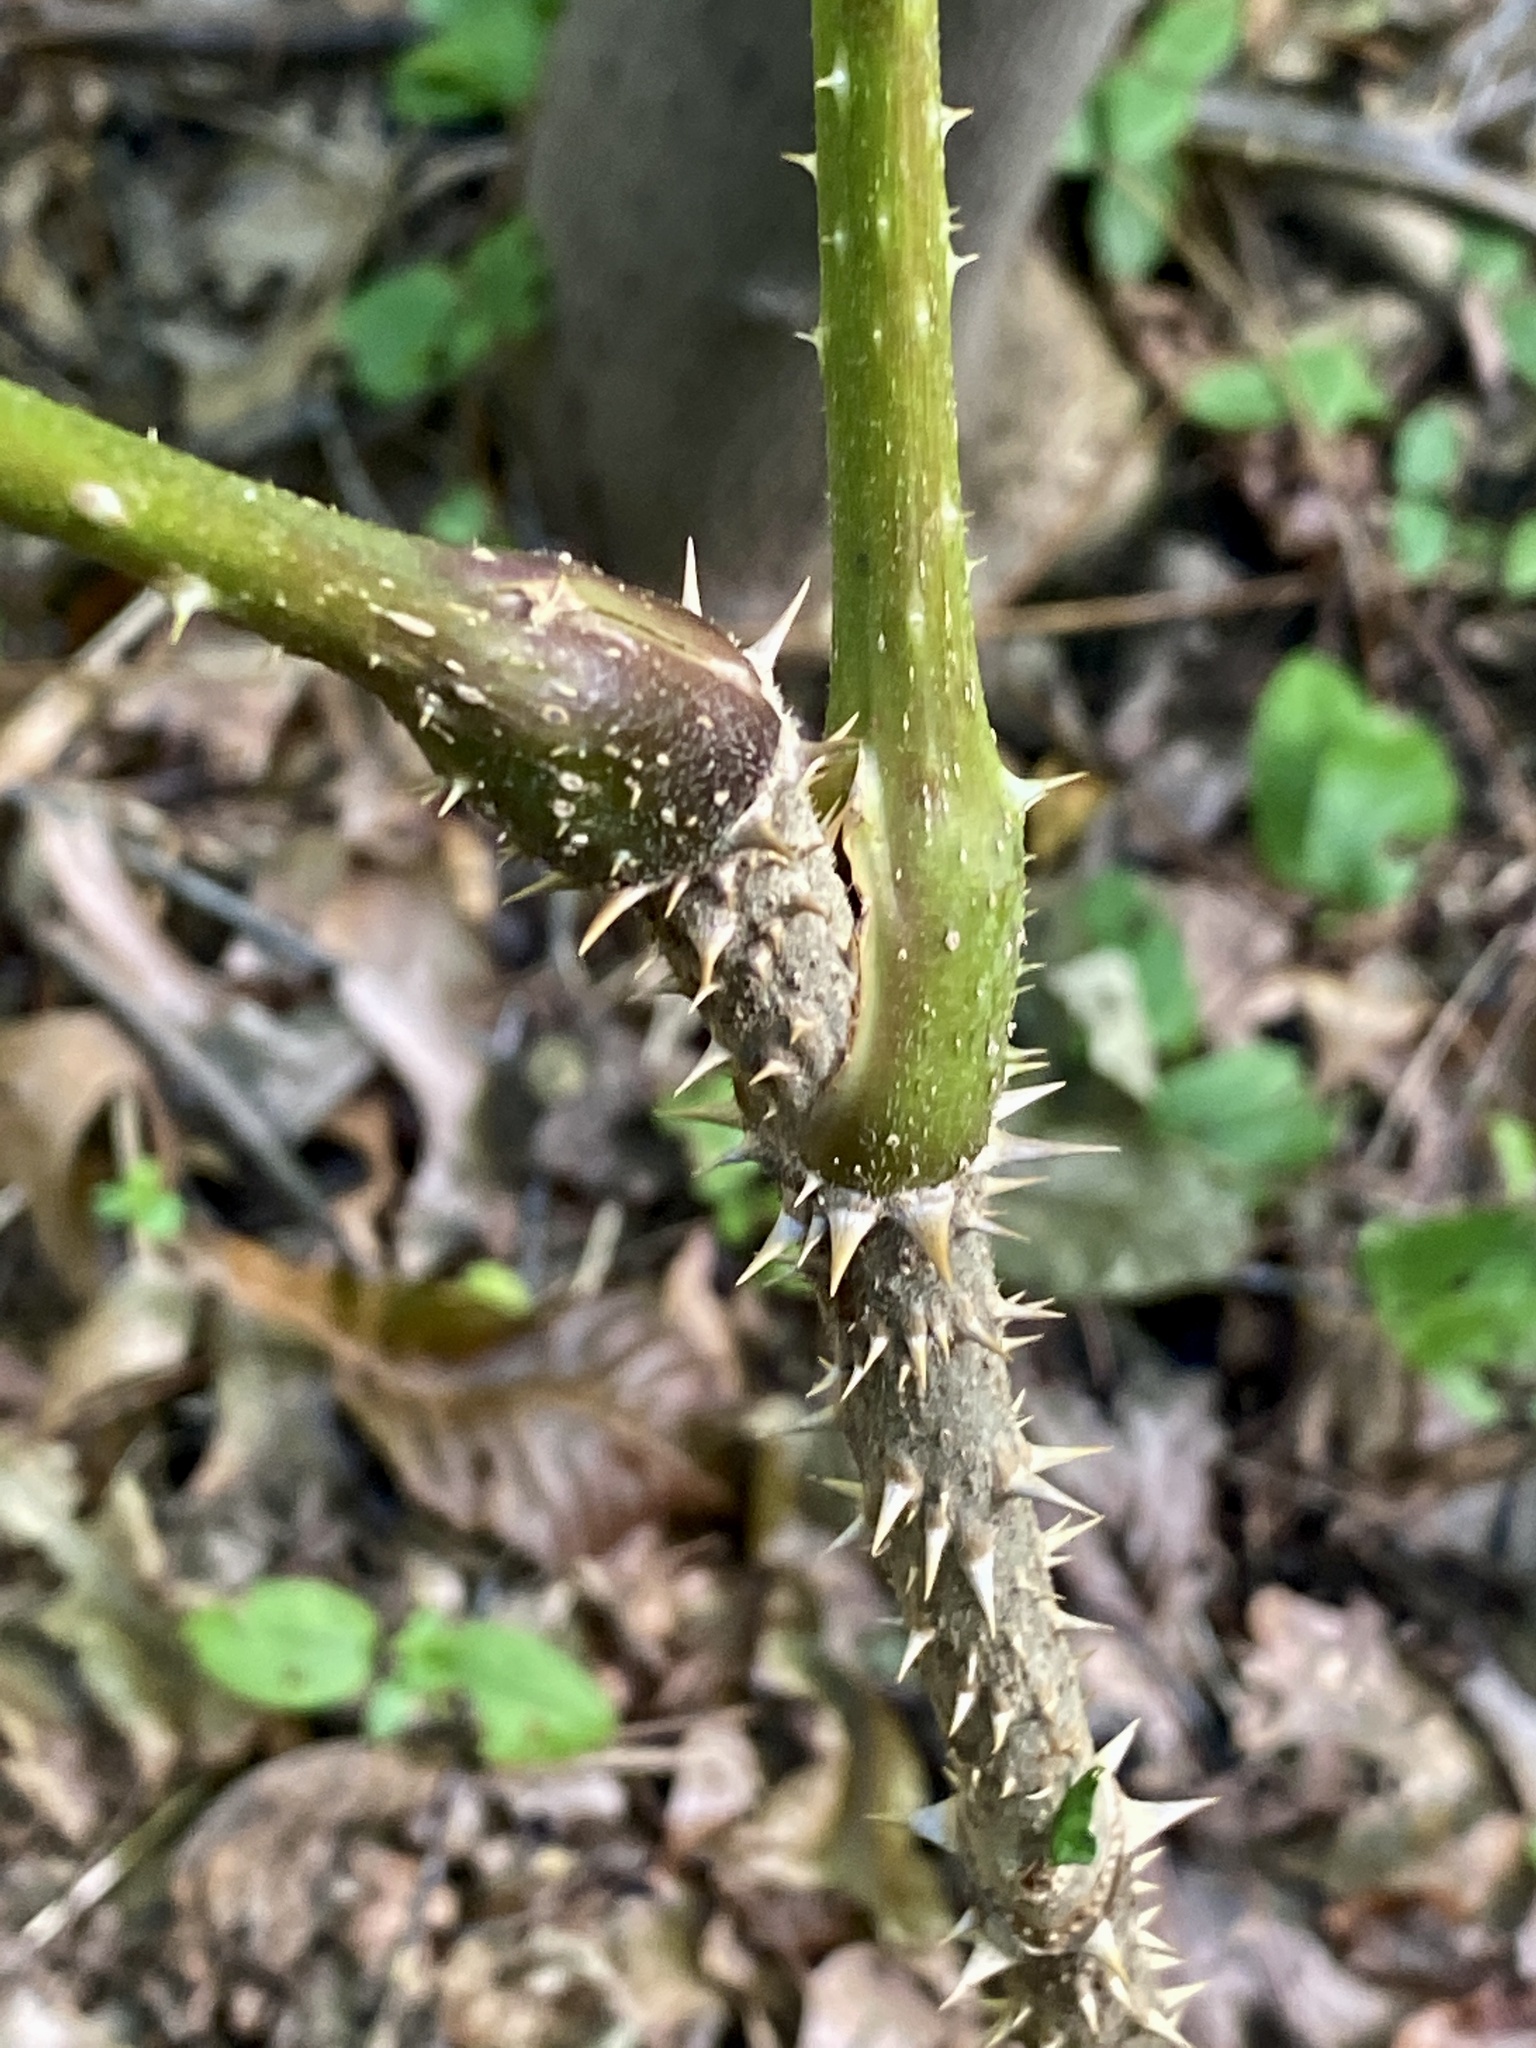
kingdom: Plantae
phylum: Tracheophyta
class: Magnoliopsida
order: Apiales
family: Araliaceae
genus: Aralia
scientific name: Aralia elata
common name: Japanese angelica-tree
